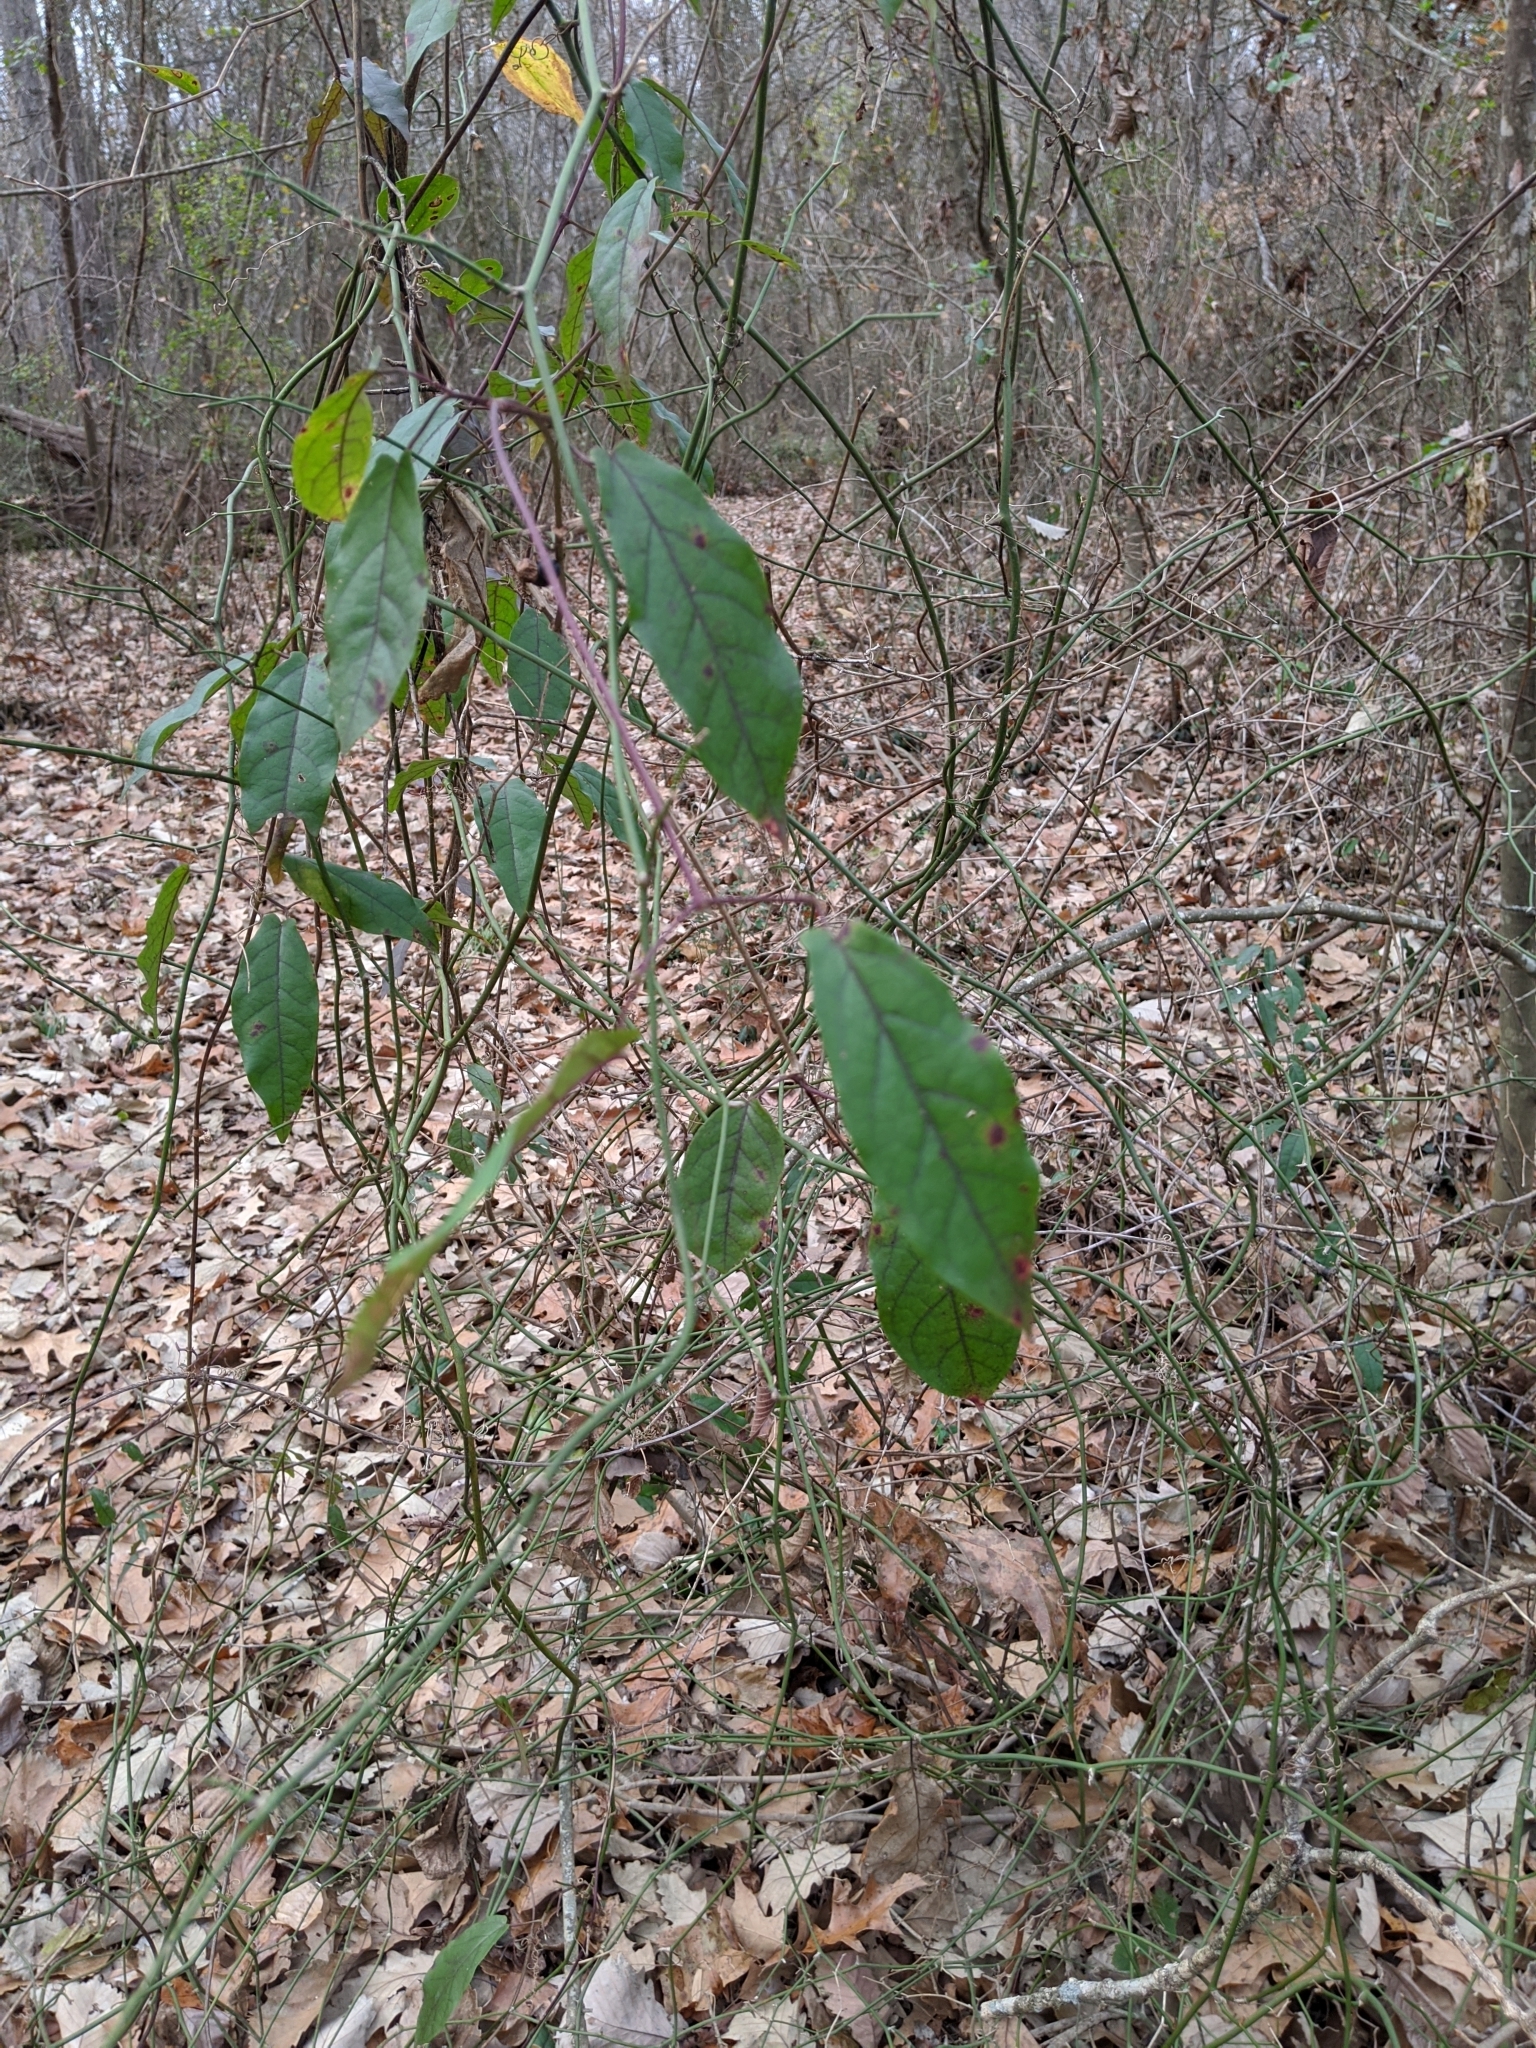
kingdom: Plantae
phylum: Tracheophyta
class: Magnoliopsida
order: Lamiales
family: Bignoniaceae
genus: Bignonia
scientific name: Bignonia capreolata
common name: Crossvine
